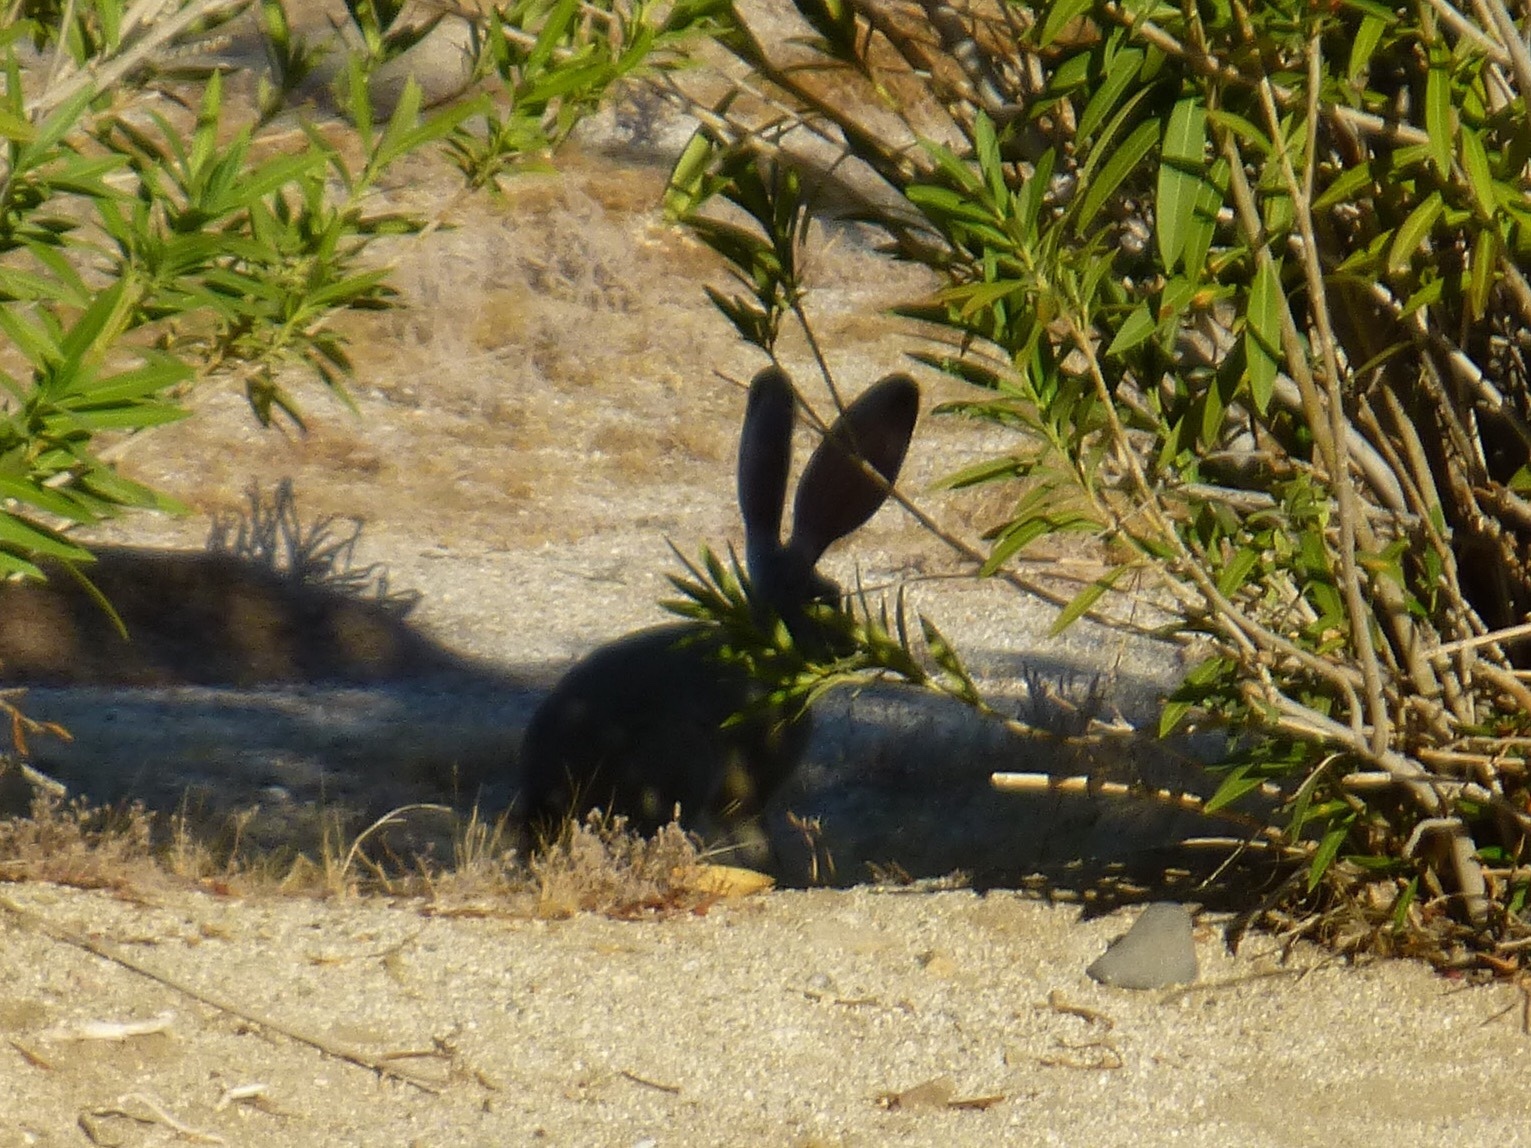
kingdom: Animalia
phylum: Chordata
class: Mammalia
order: Lagomorpha
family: Leporidae
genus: Lepus
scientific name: Lepus californicus
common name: Black-tailed jackrabbit
